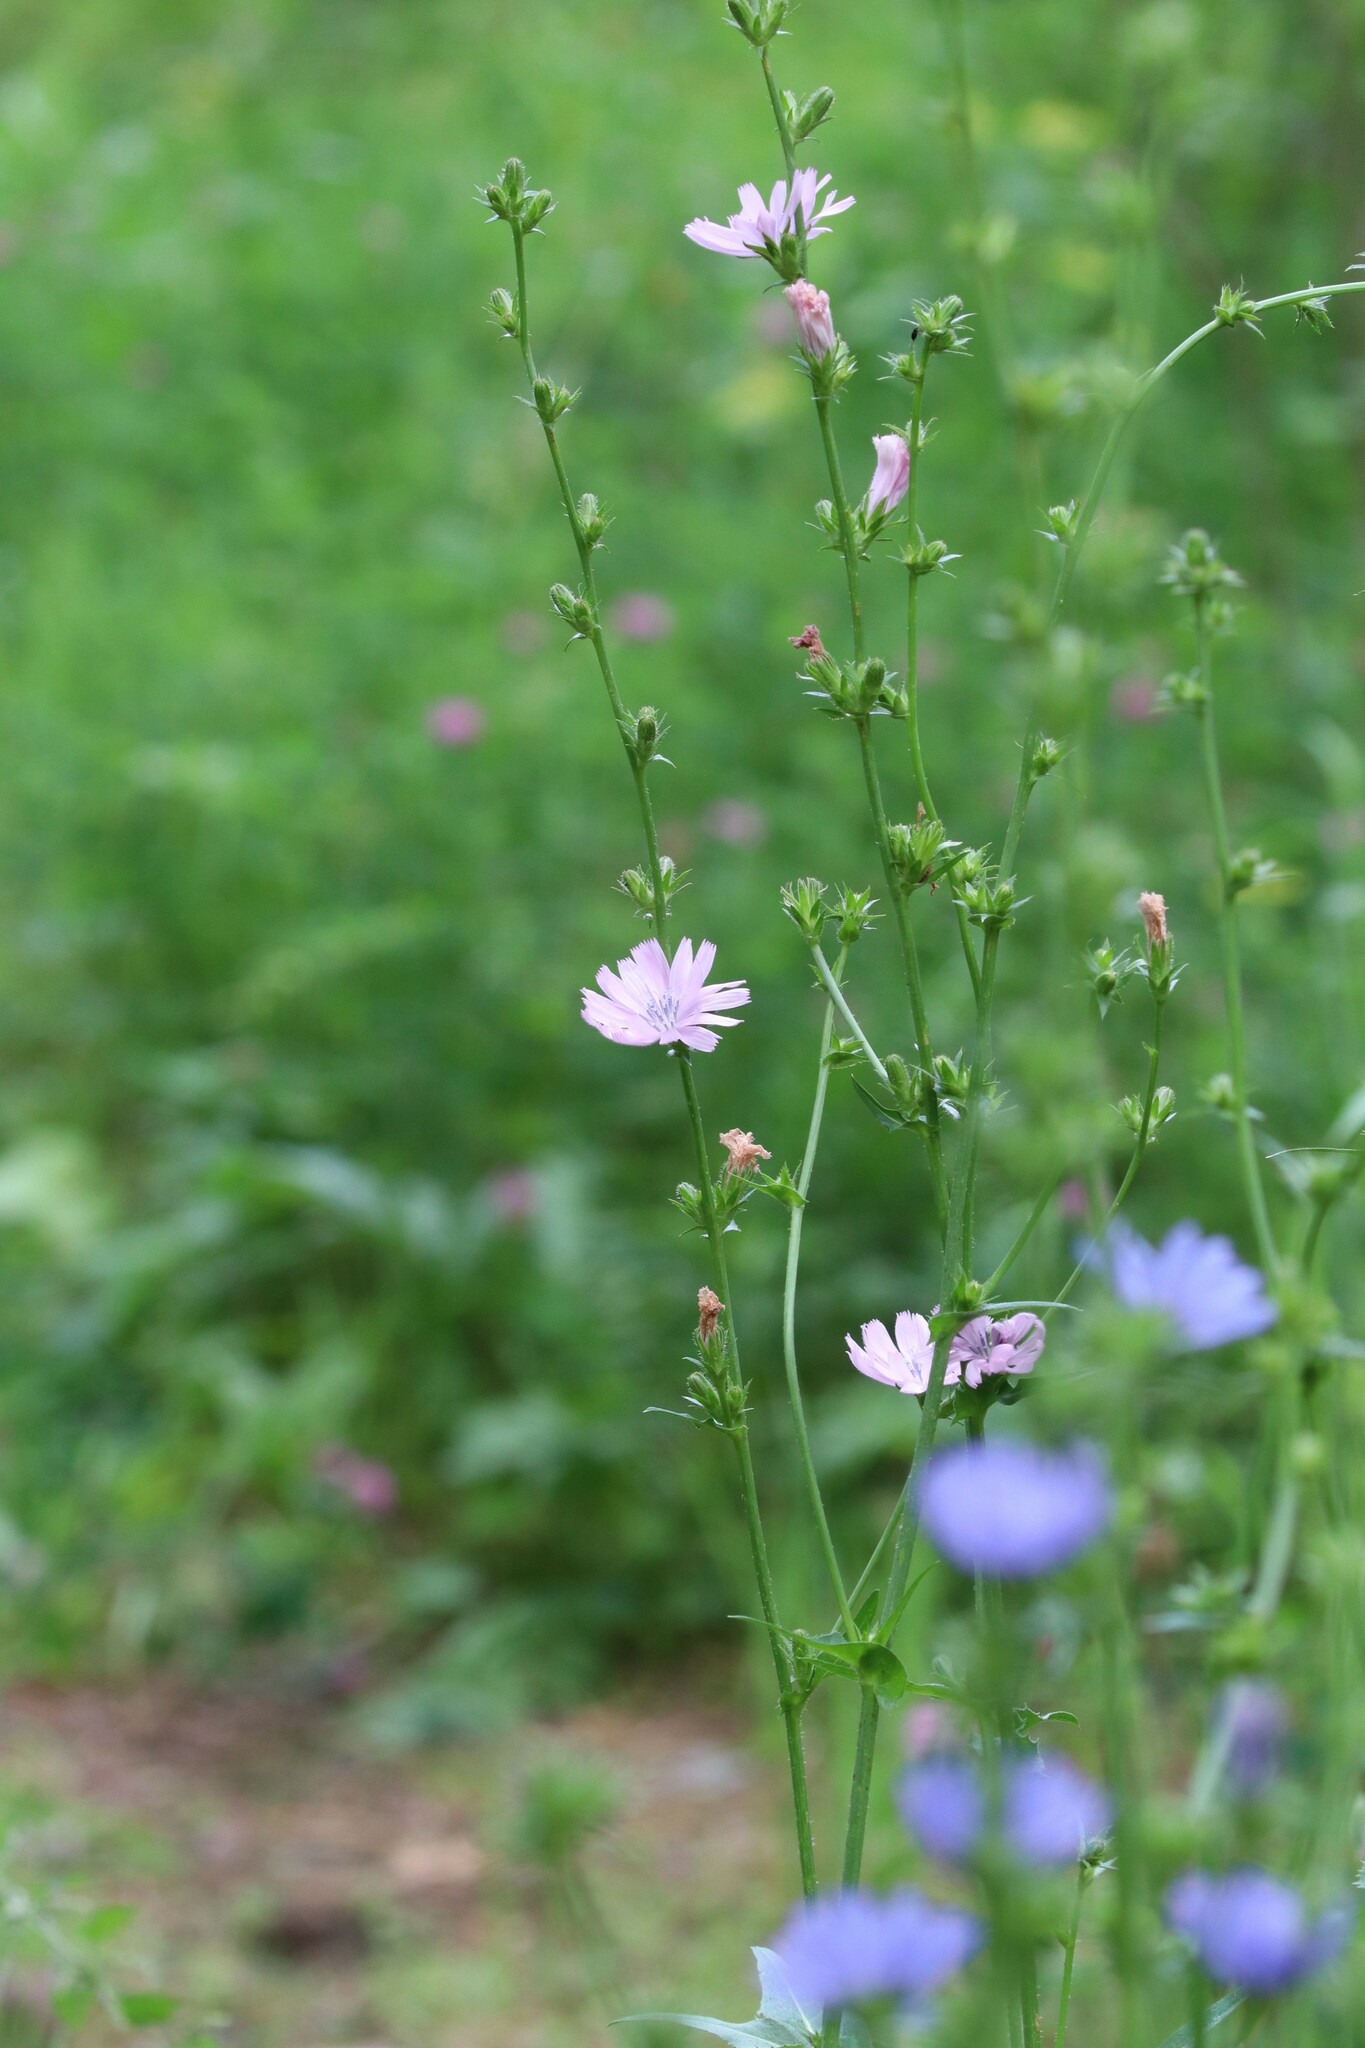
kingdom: Plantae
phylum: Tracheophyta
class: Magnoliopsida
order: Asterales
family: Asteraceae
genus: Cichorium
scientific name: Cichorium intybus
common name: Chicory
